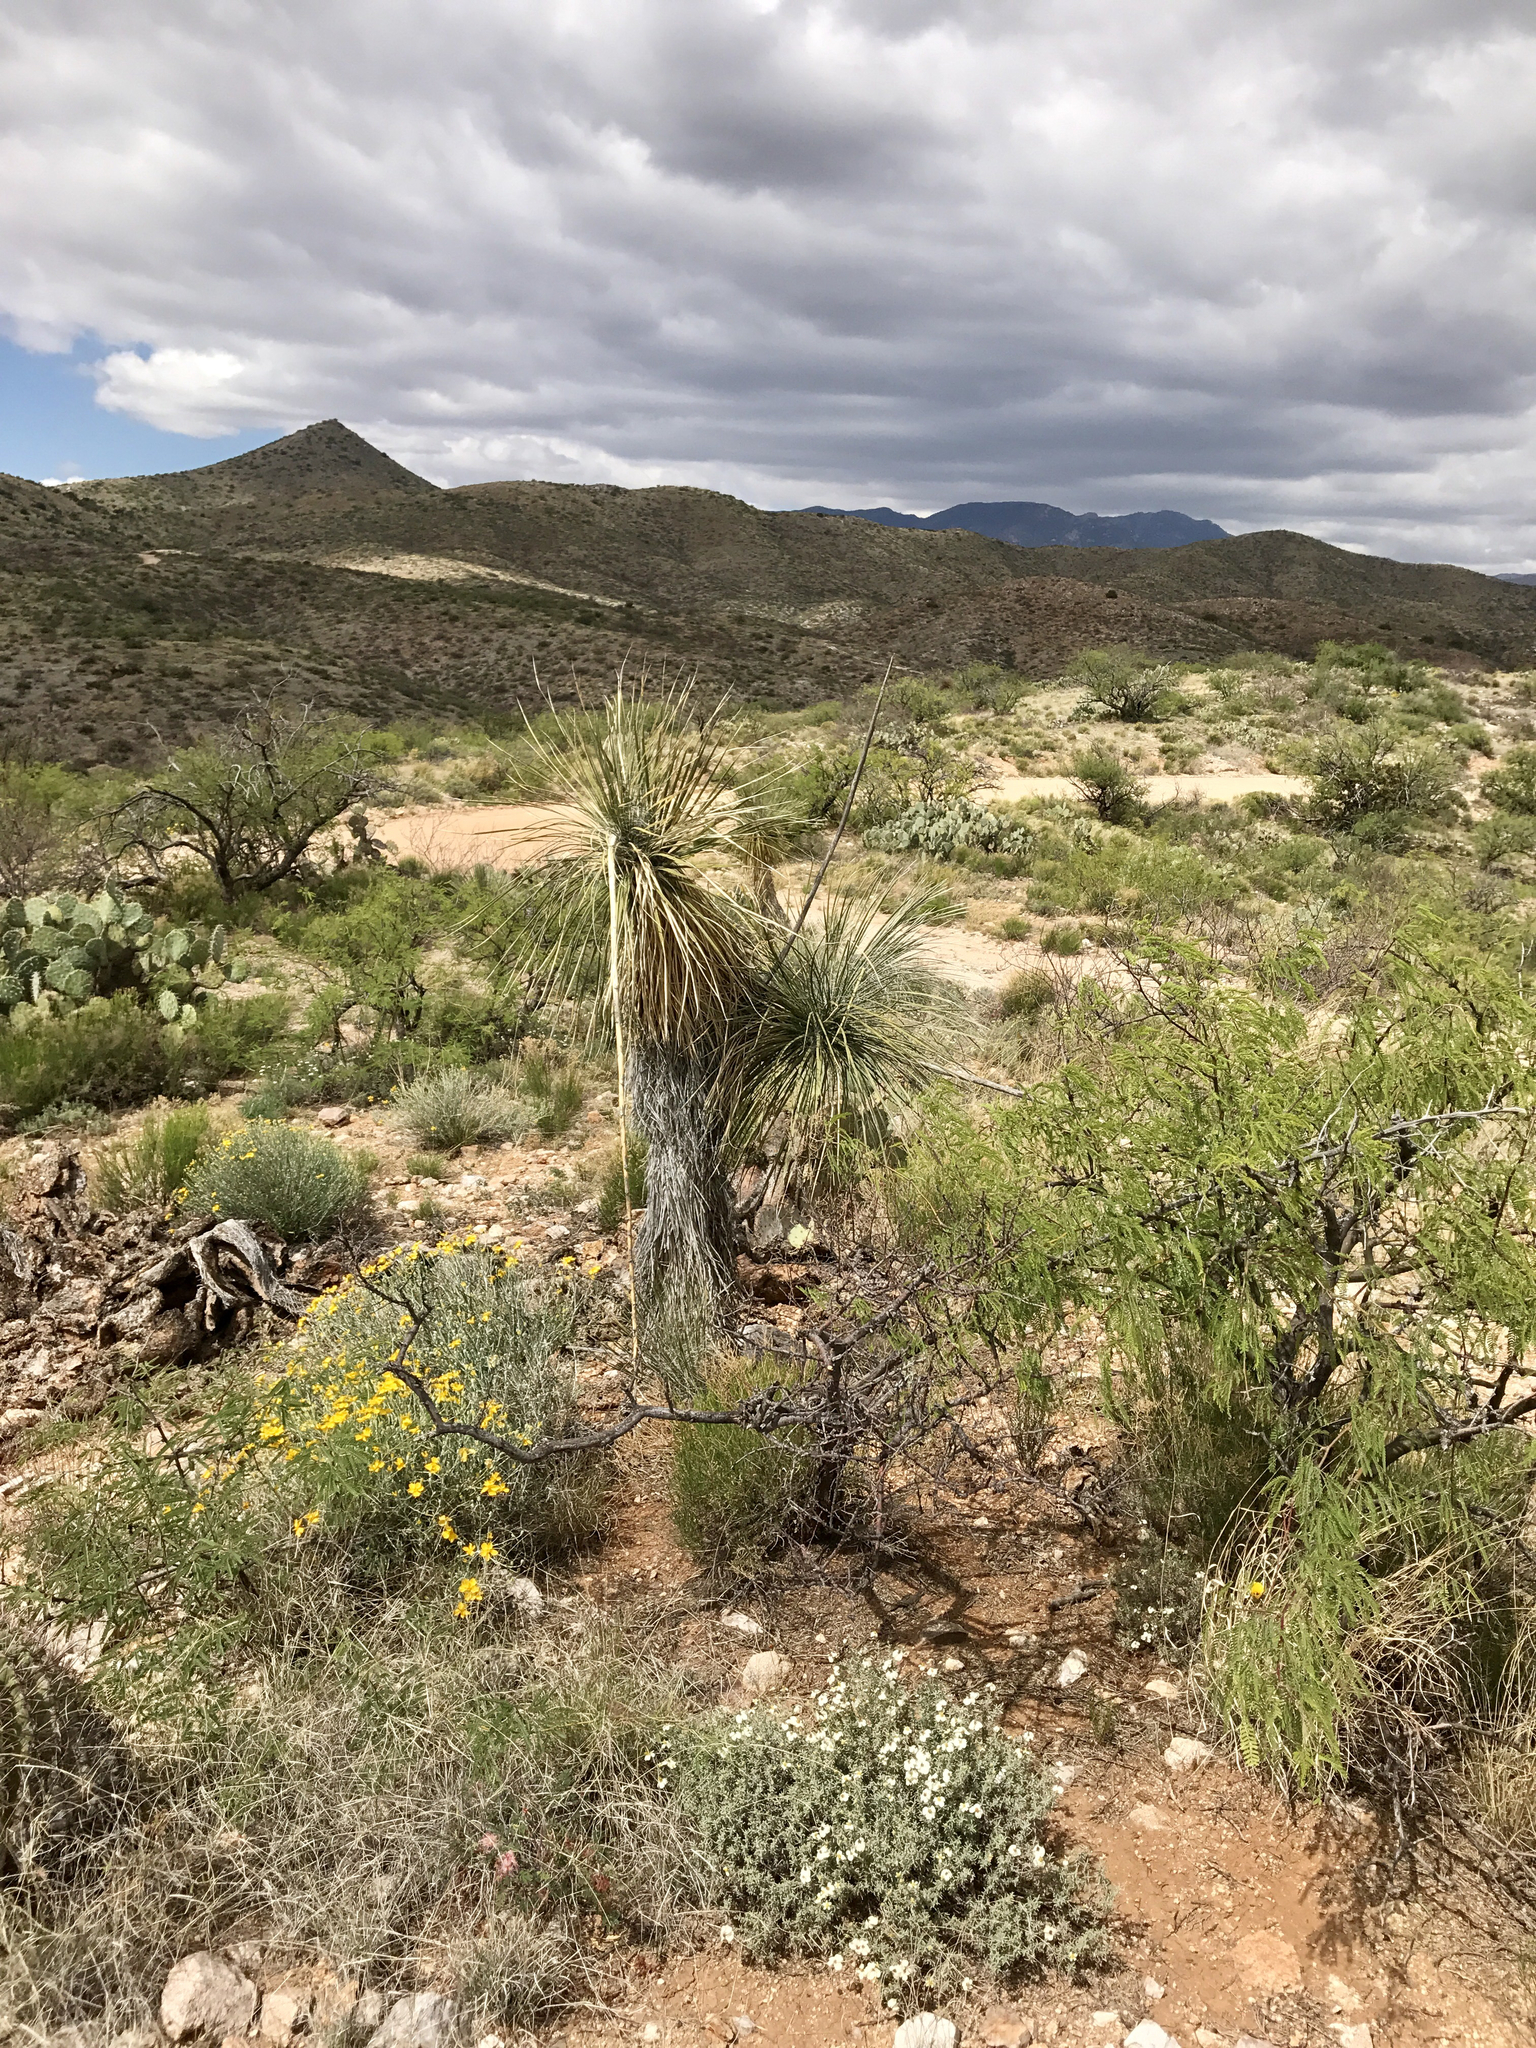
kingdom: Plantae
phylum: Tracheophyta
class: Liliopsida
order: Asparagales
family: Asparagaceae
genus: Yucca
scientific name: Yucca elata
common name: Palmella
